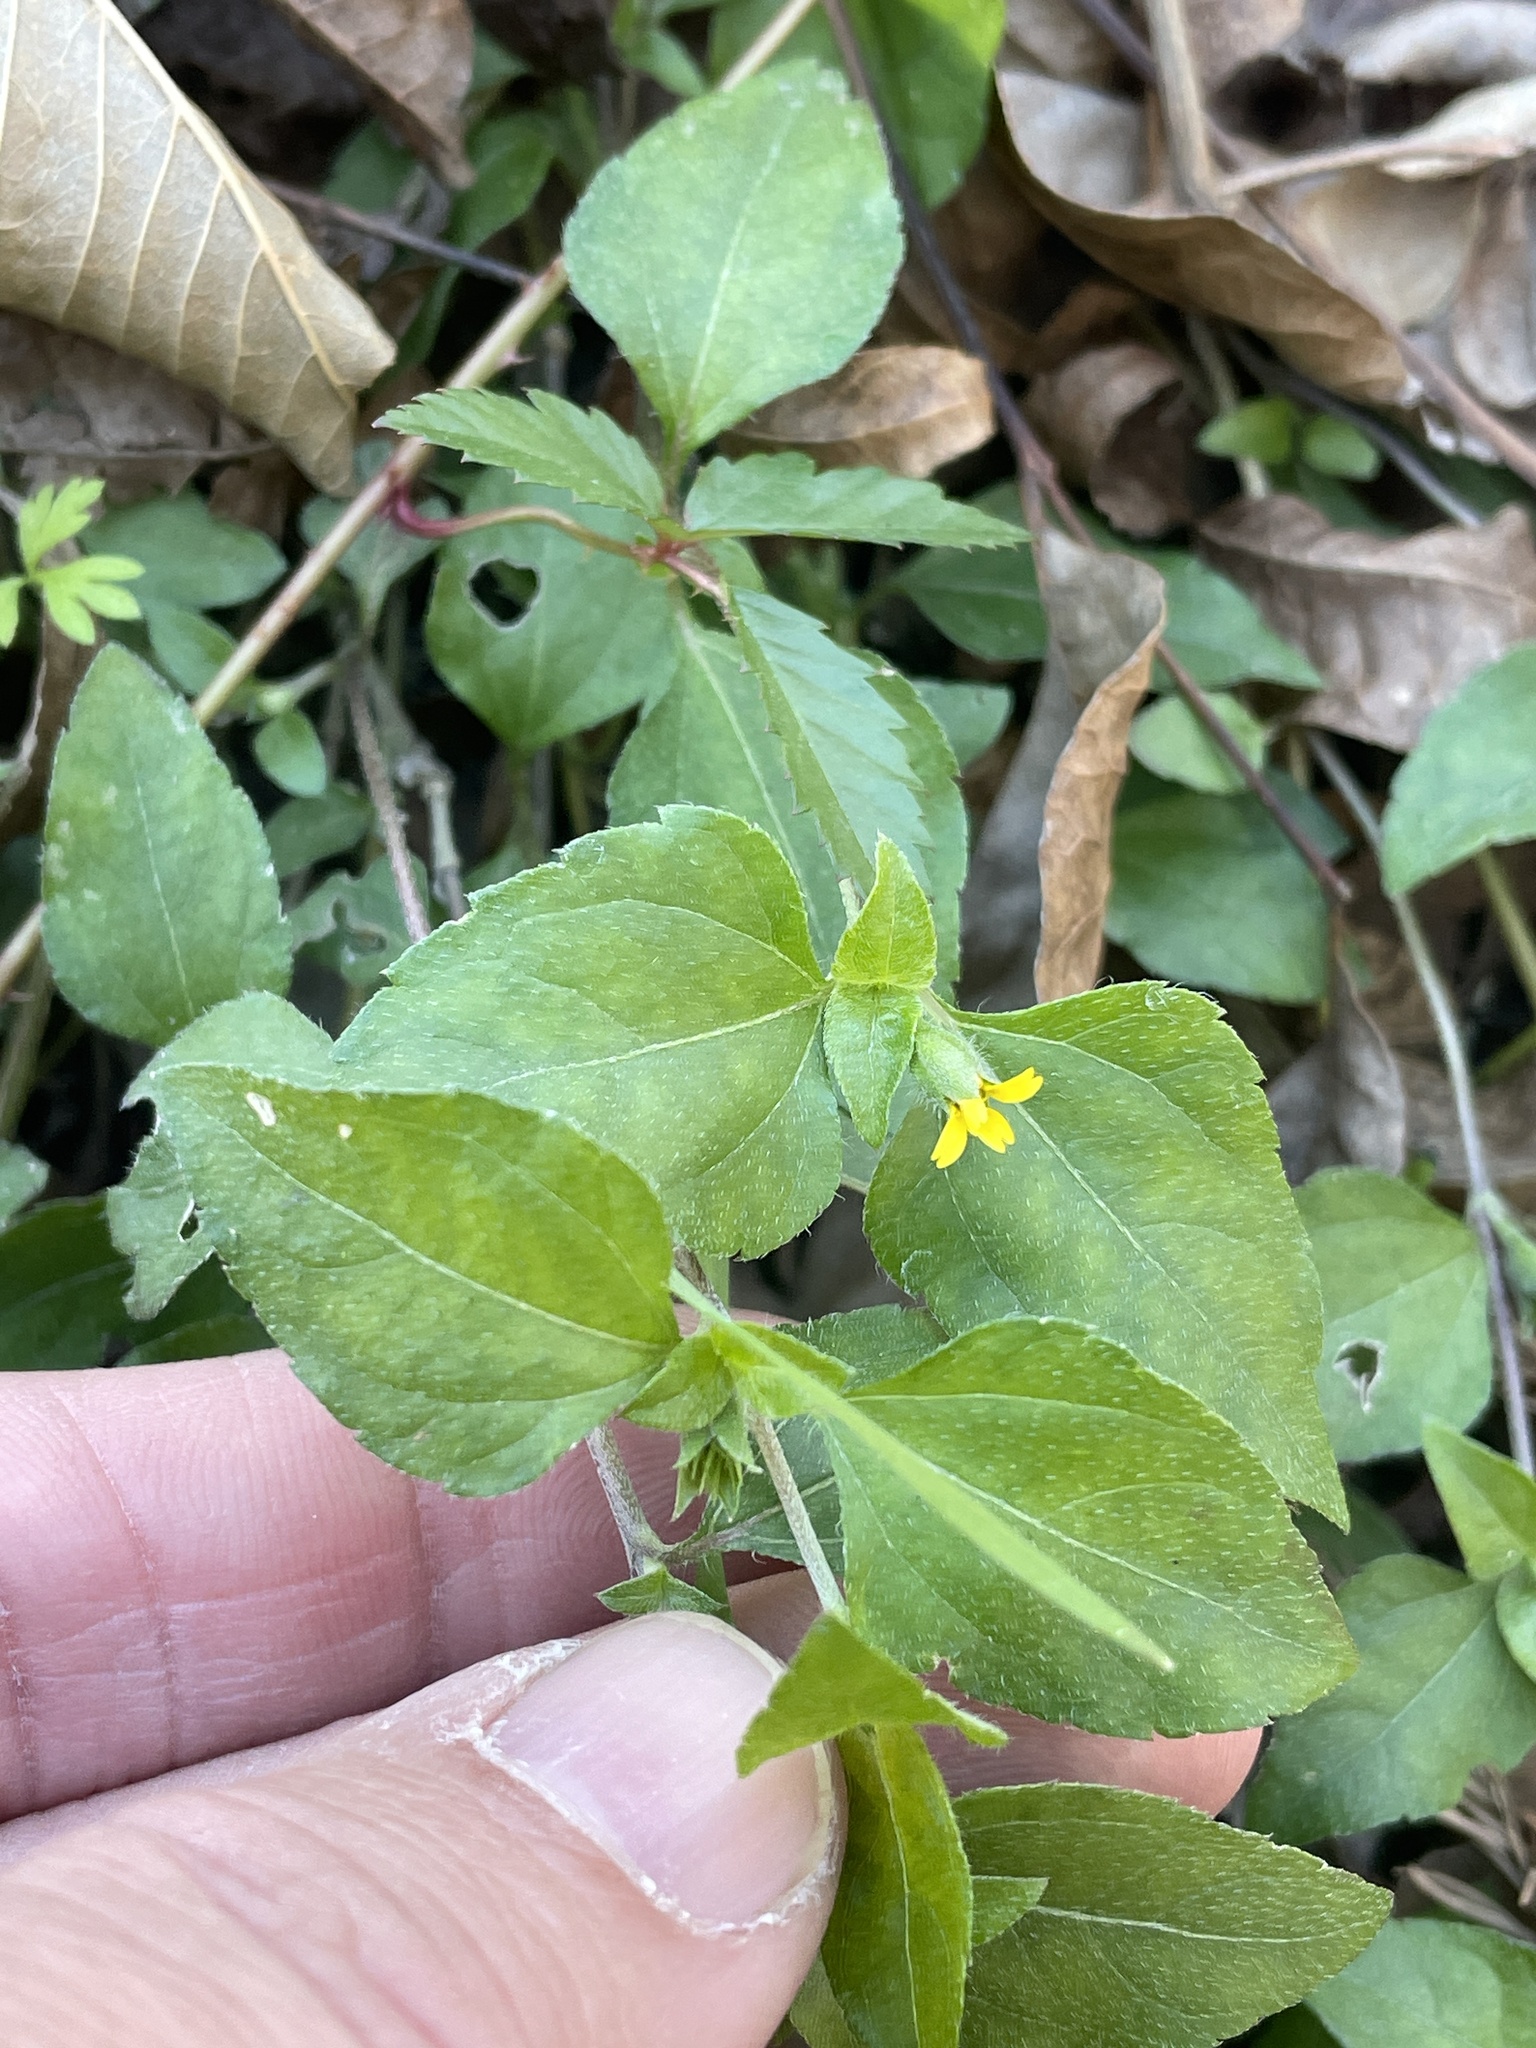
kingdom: Plantae
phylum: Tracheophyta
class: Magnoliopsida
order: Asterales
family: Asteraceae
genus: Calyptocarpus
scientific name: Calyptocarpus vialis
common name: Straggler daisy
